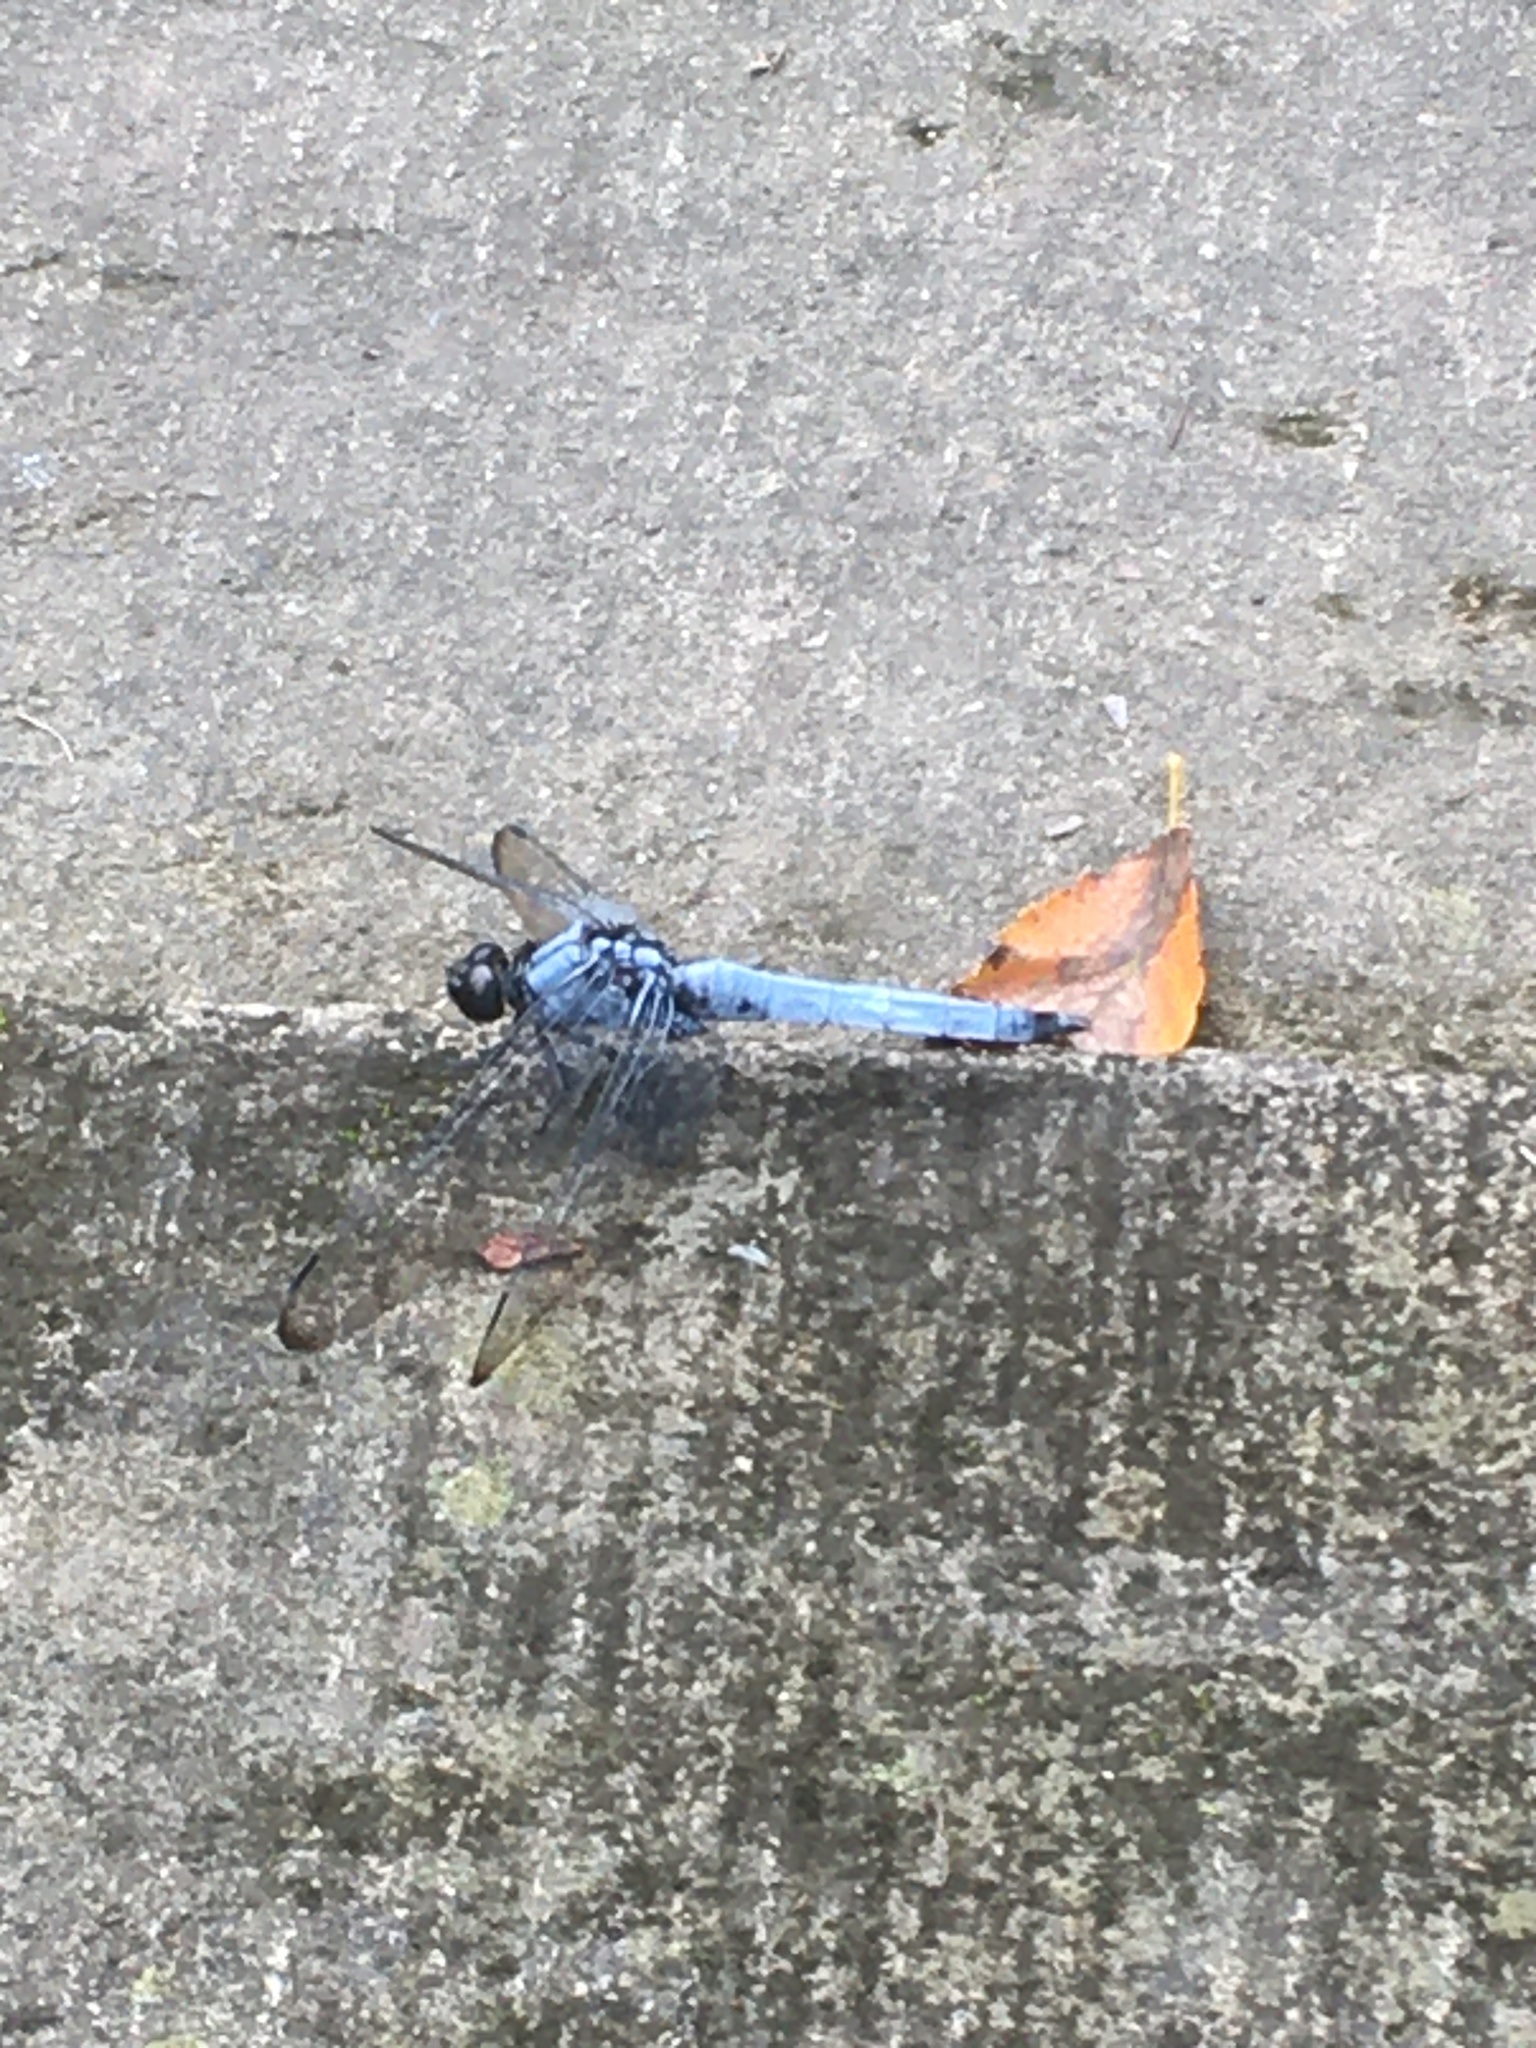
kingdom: Animalia
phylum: Arthropoda
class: Insecta
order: Odonata
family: Libellulidae
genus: Orthetrum
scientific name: Orthetrum melania
